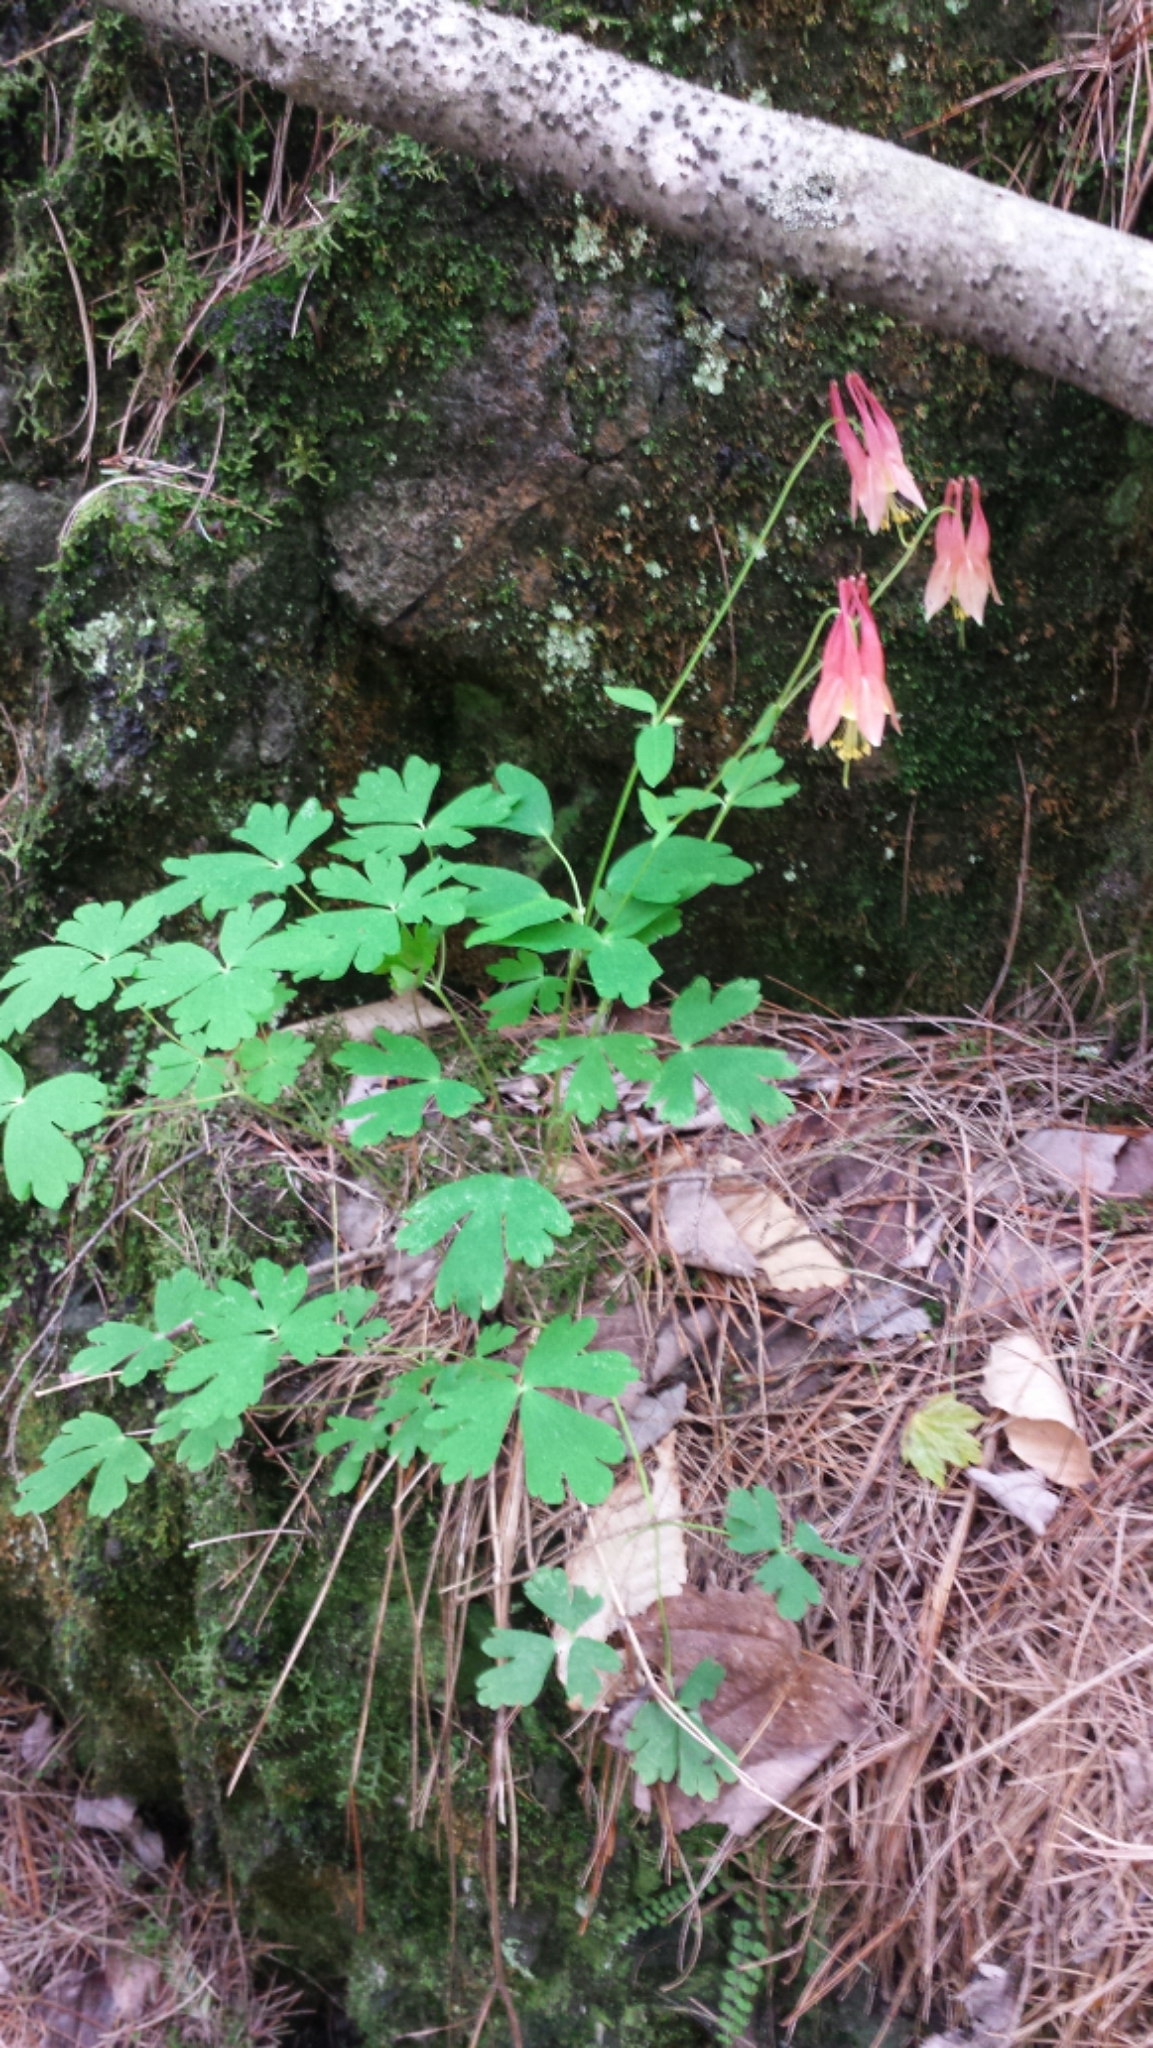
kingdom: Plantae
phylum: Tracheophyta
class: Magnoliopsida
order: Ranunculales
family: Ranunculaceae
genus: Aquilegia
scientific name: Aquilegia canadensis
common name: American columbine
